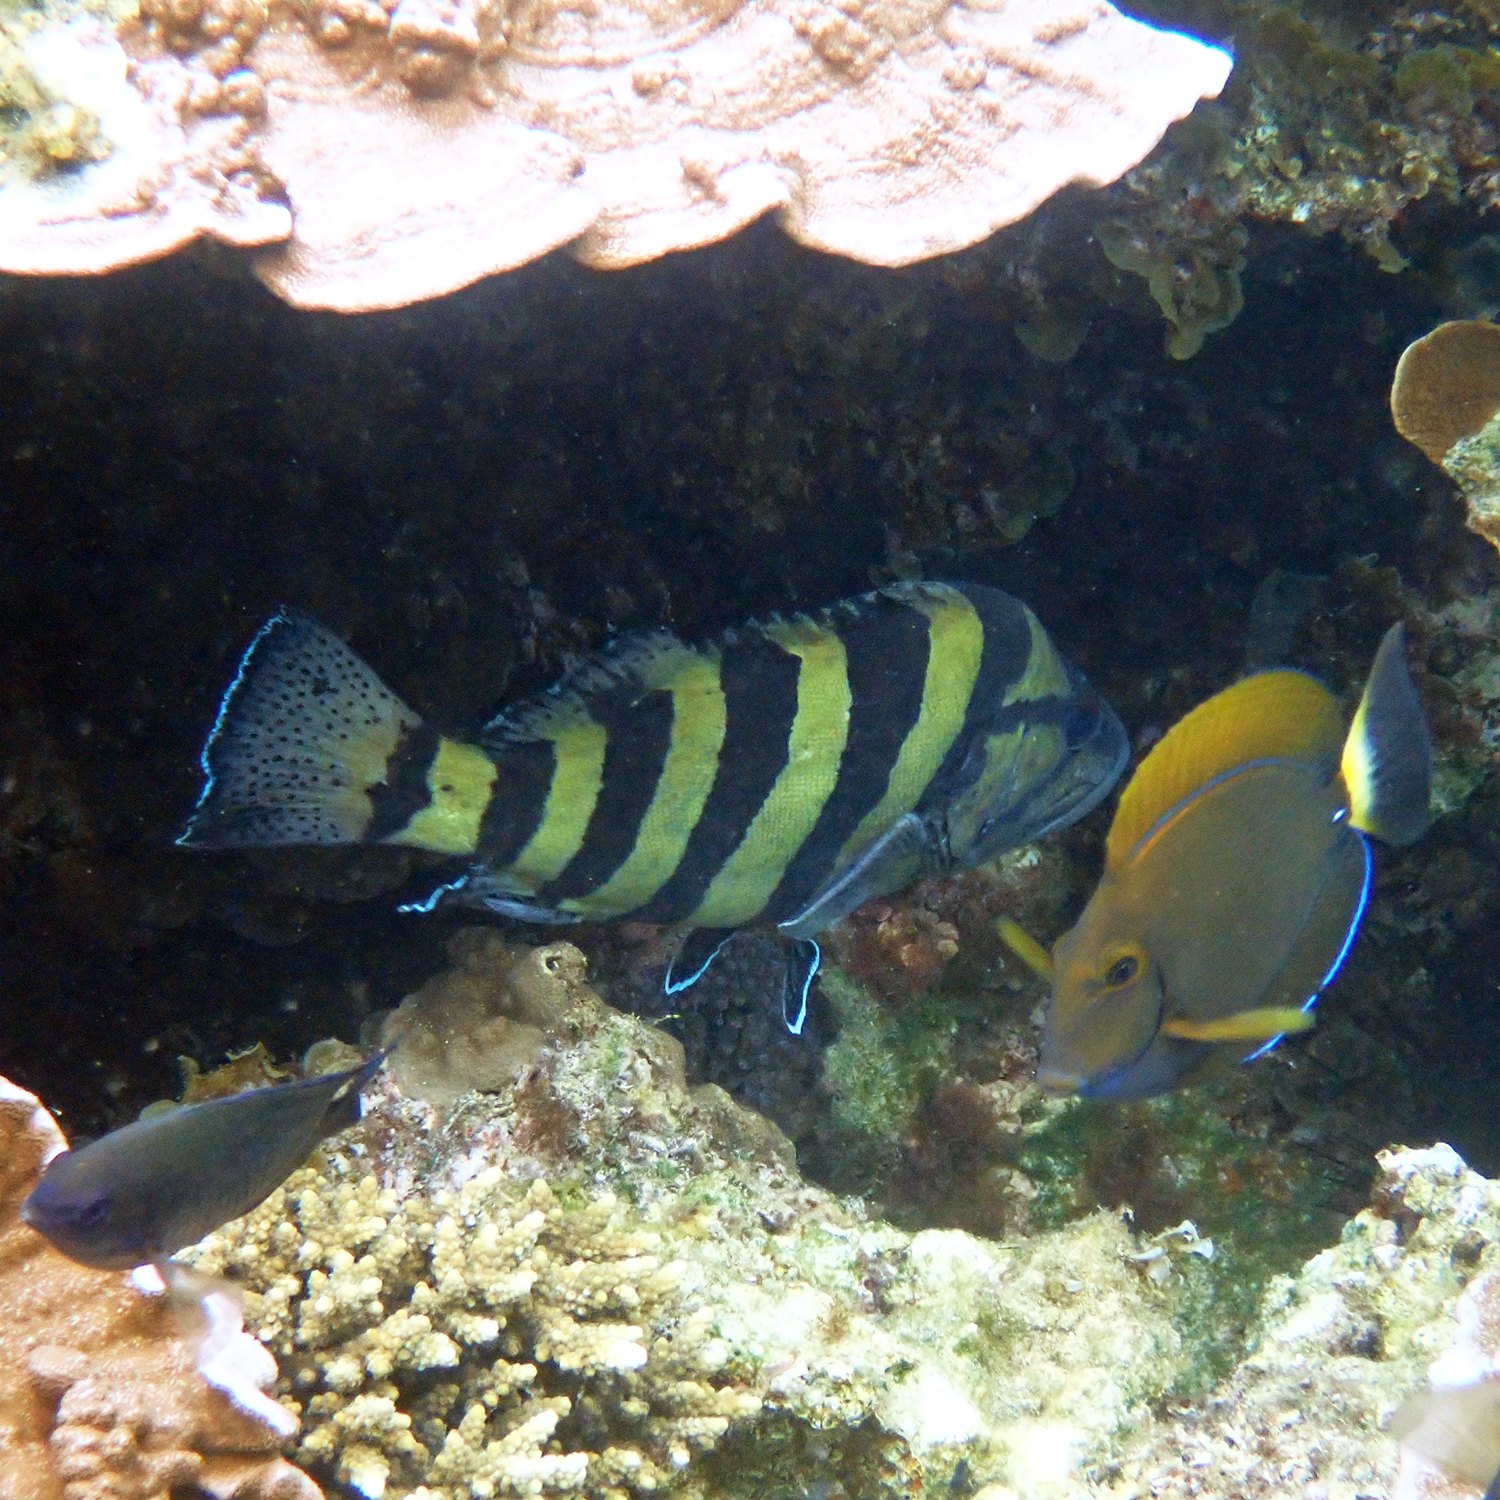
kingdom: Animalia
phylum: Chordata
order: Perciformes
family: Serranidae
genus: Acanthistius
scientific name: Acanthistius cinctus
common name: Girdled rock cod
